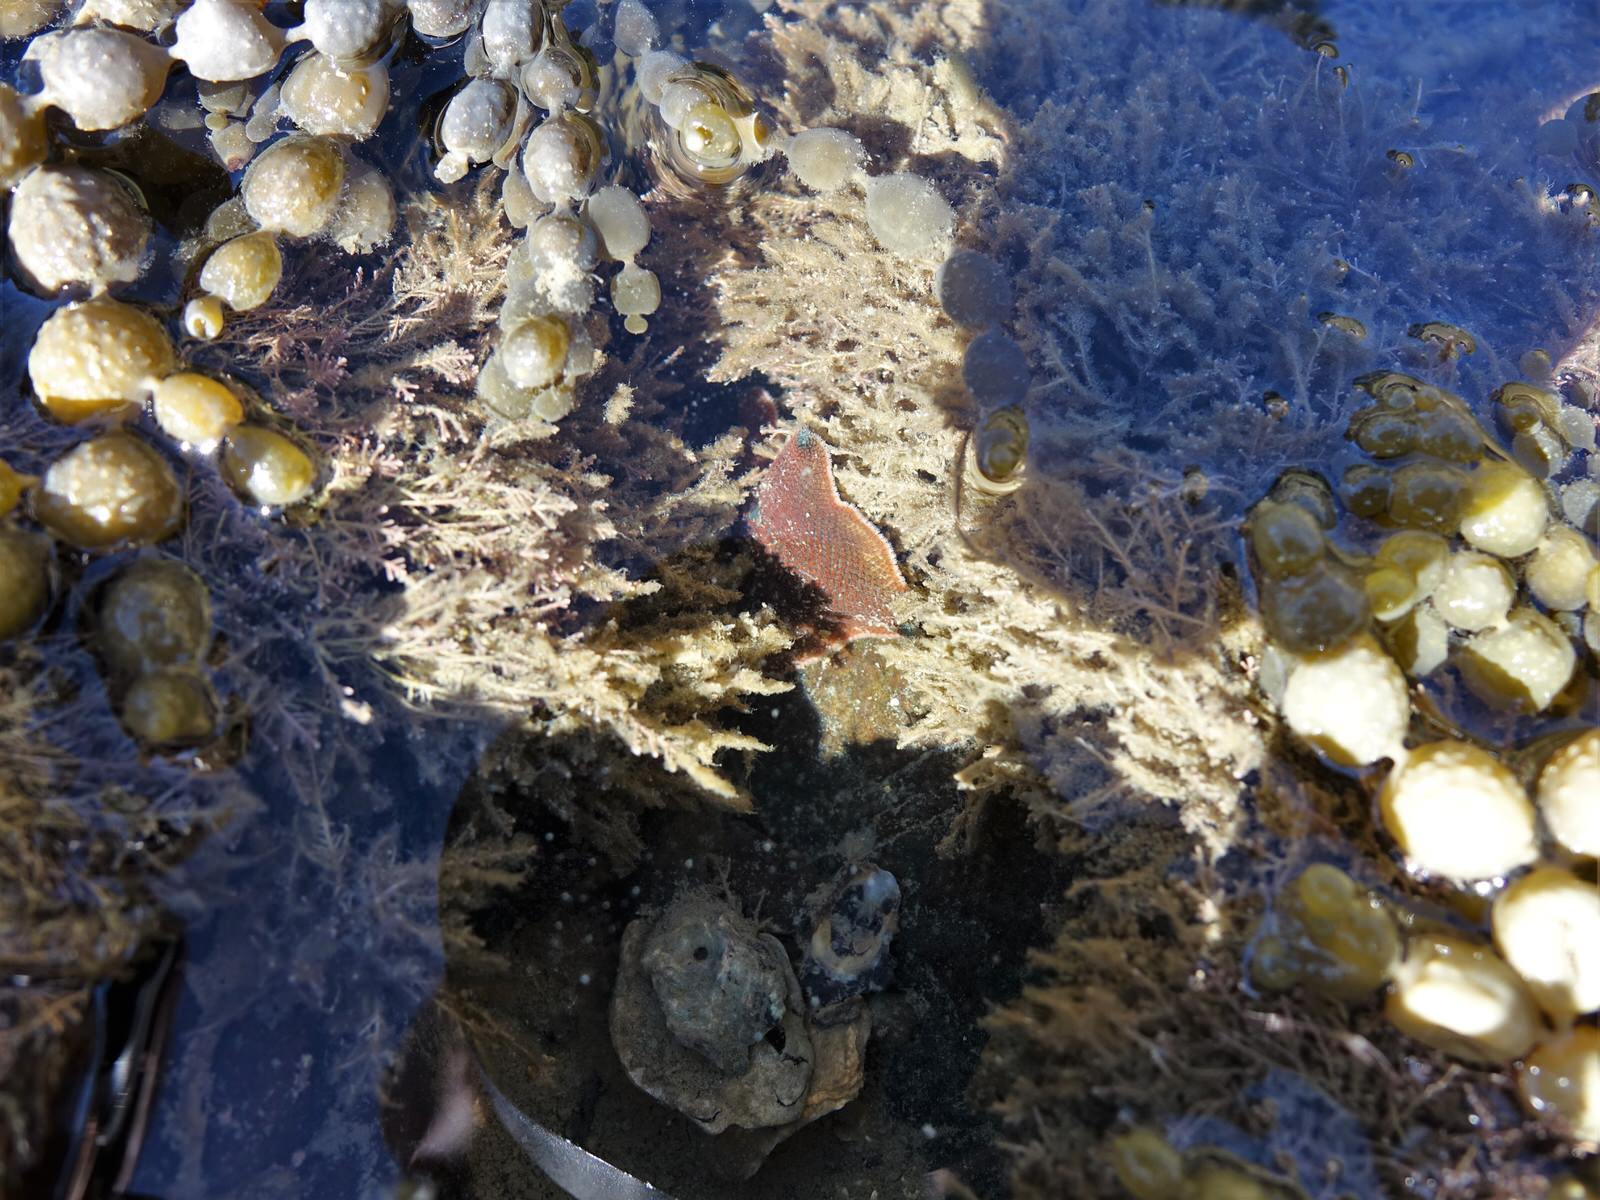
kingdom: Animalia
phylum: Echinodermata
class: Asteroidea
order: Valvatida
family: Asterinidae
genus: Patiriella
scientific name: Patiriella regularis
